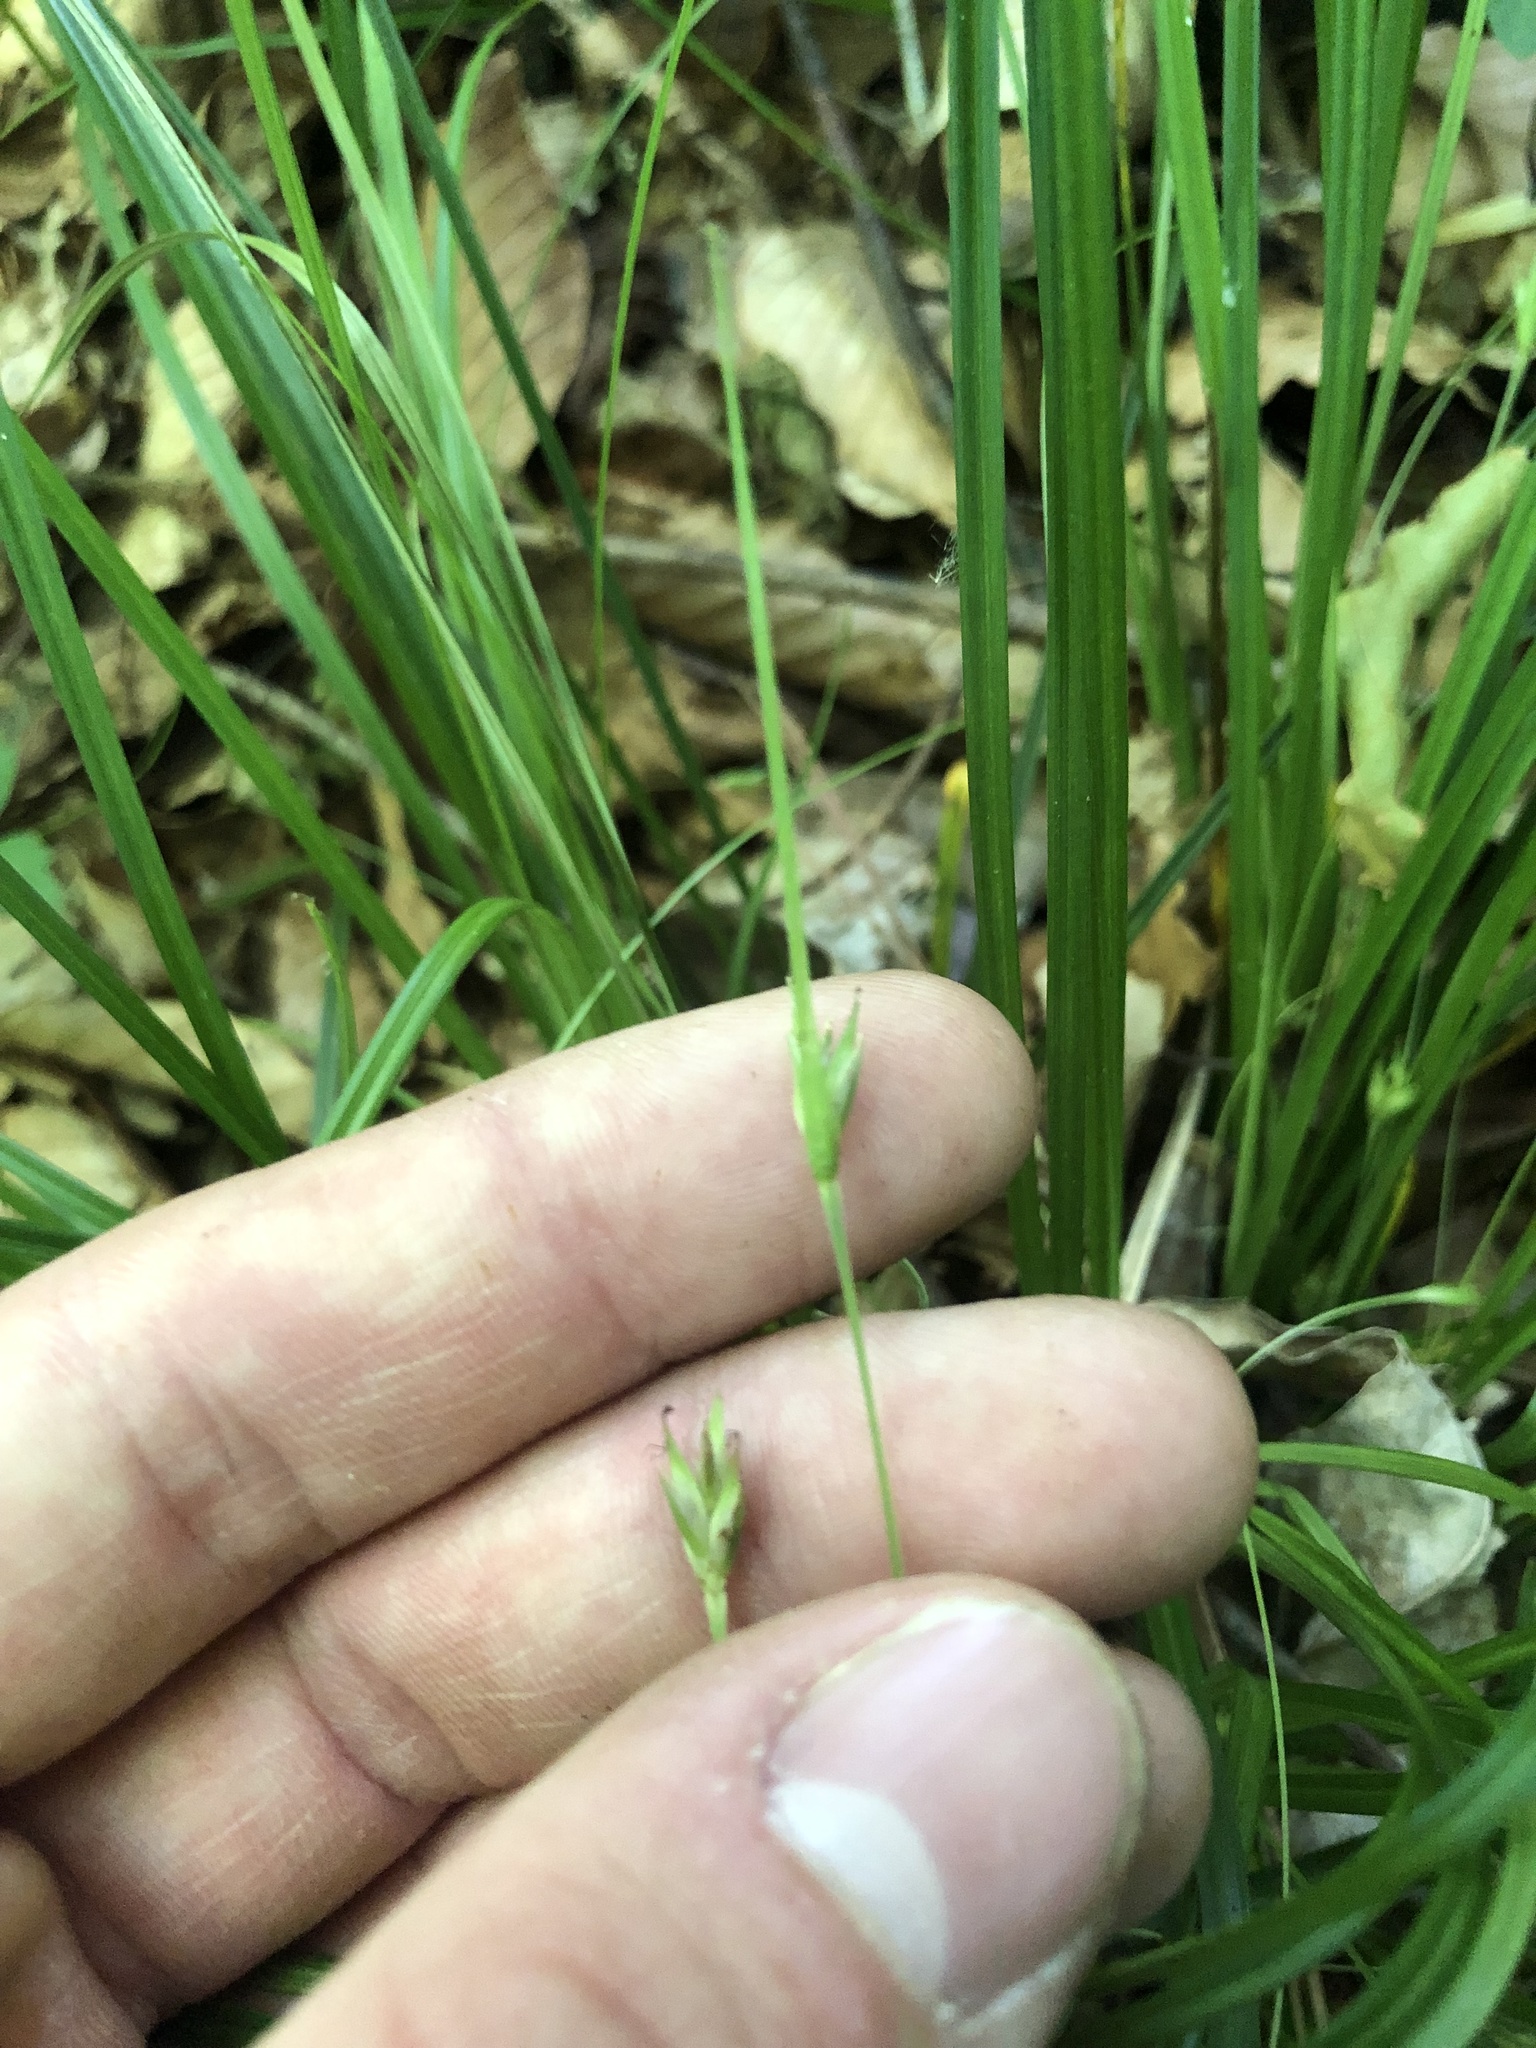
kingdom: Plantae
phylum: Tracheophyta
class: Liliopsida
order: Poales
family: Cyperaceae
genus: Carex
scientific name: Carex basiantha
